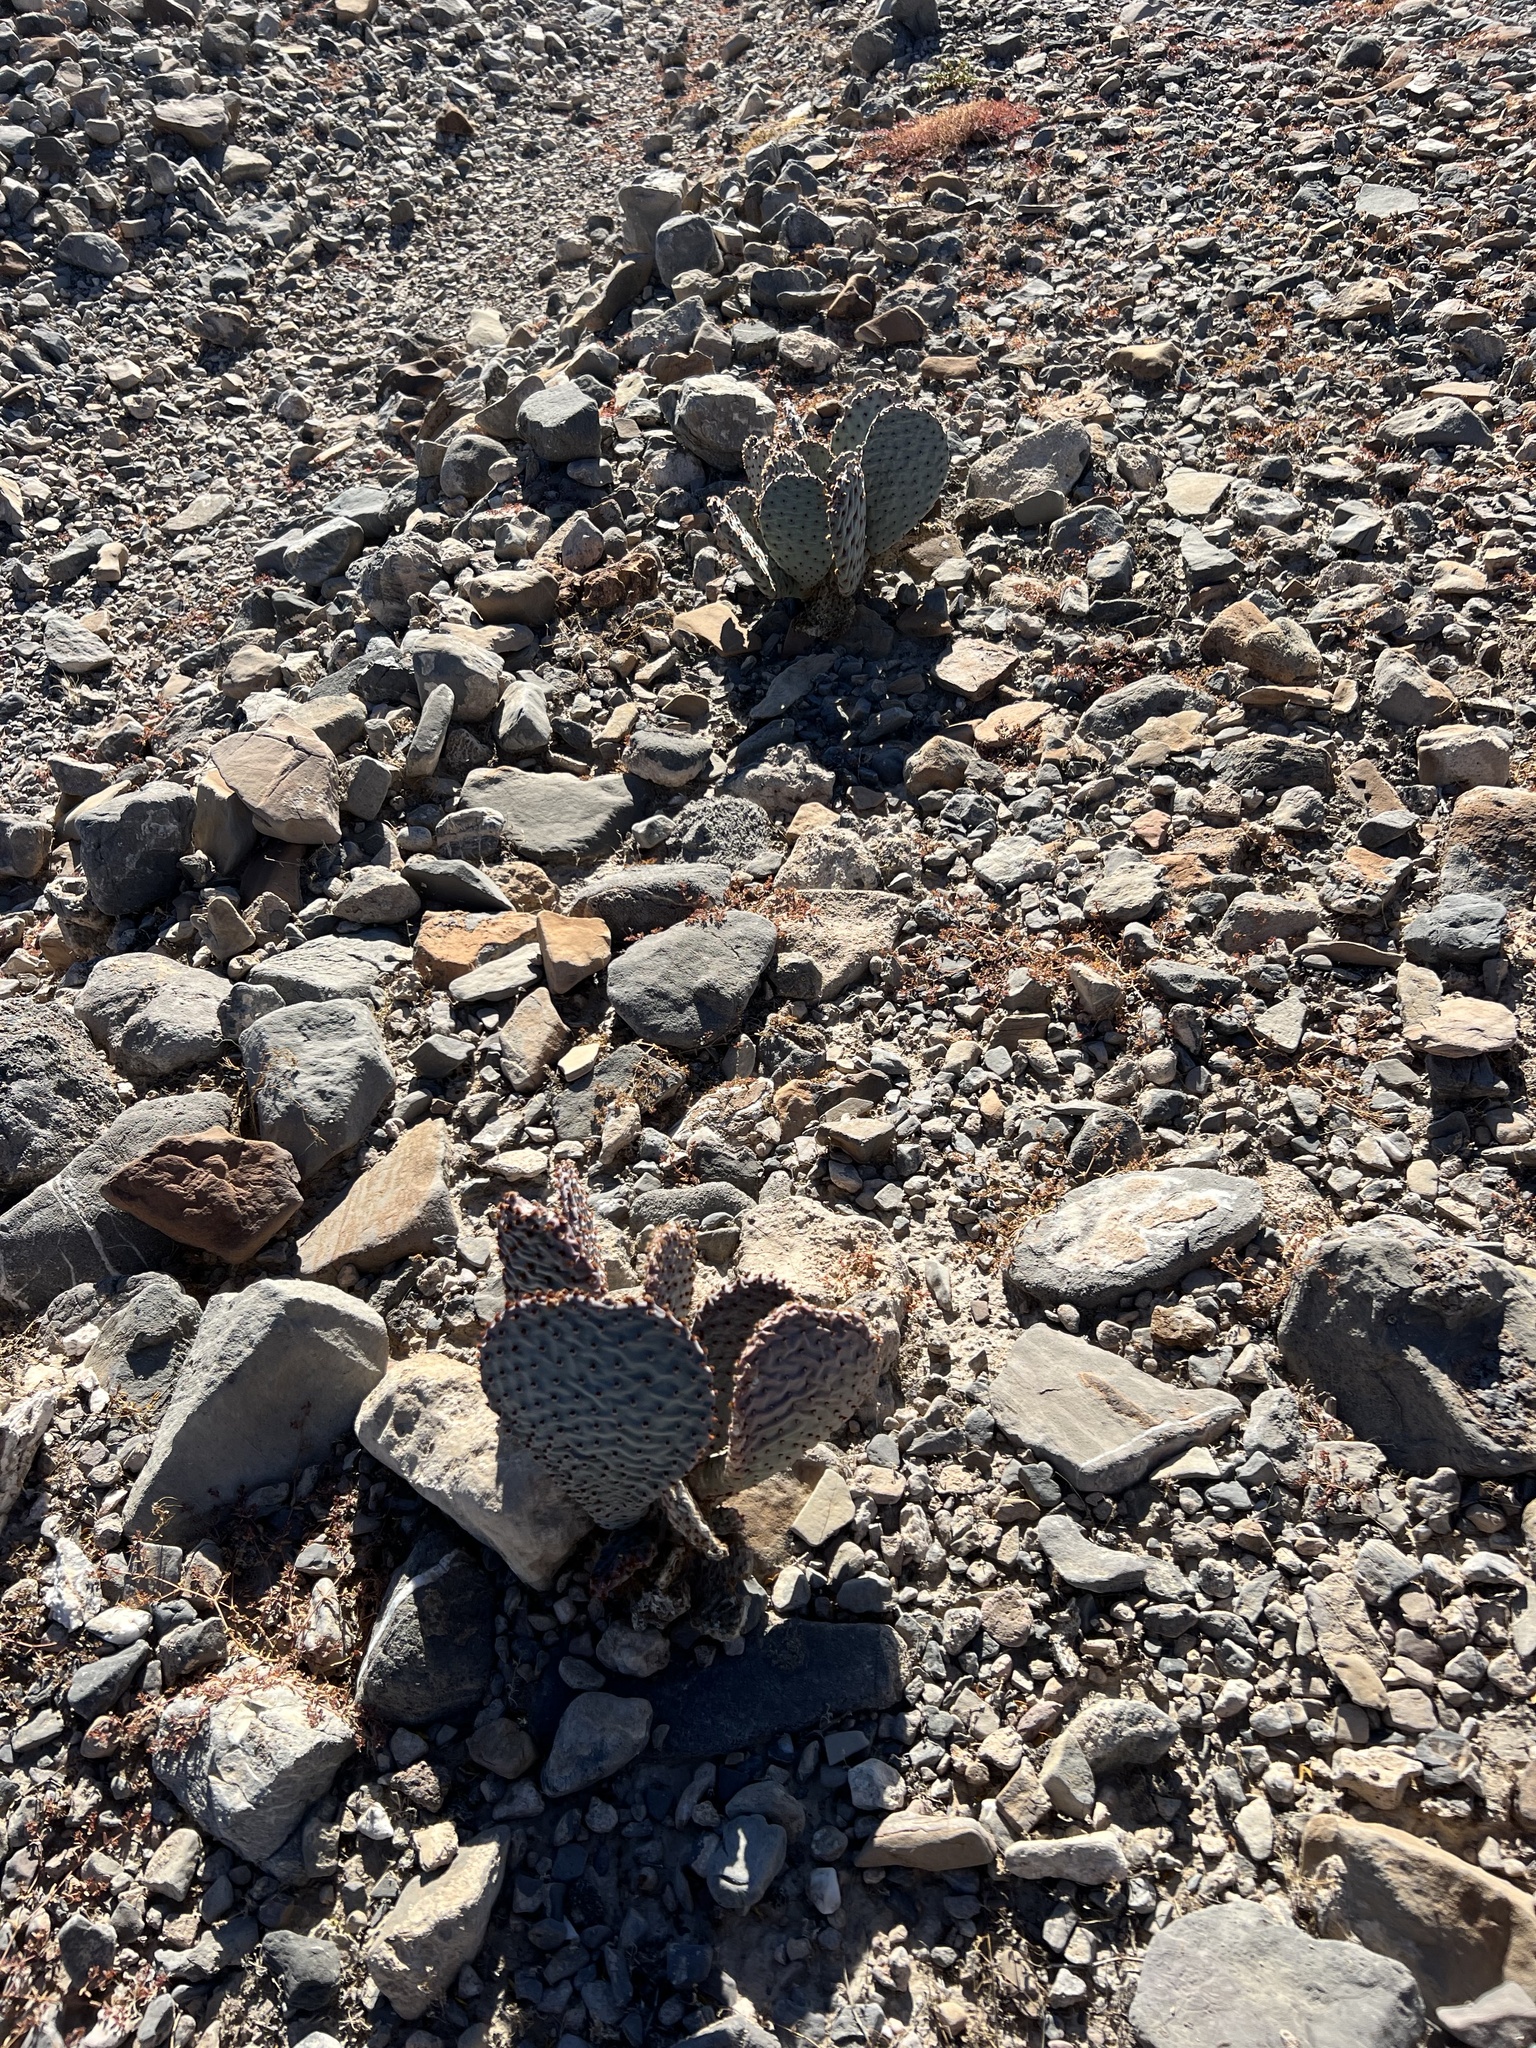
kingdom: Plantae
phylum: Tracheophyta
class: Magnoliopsida
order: Caryophyllales
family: Cactaceae
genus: Opuntia
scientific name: Opuntia basilaris
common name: Beavertail prickly-pear
